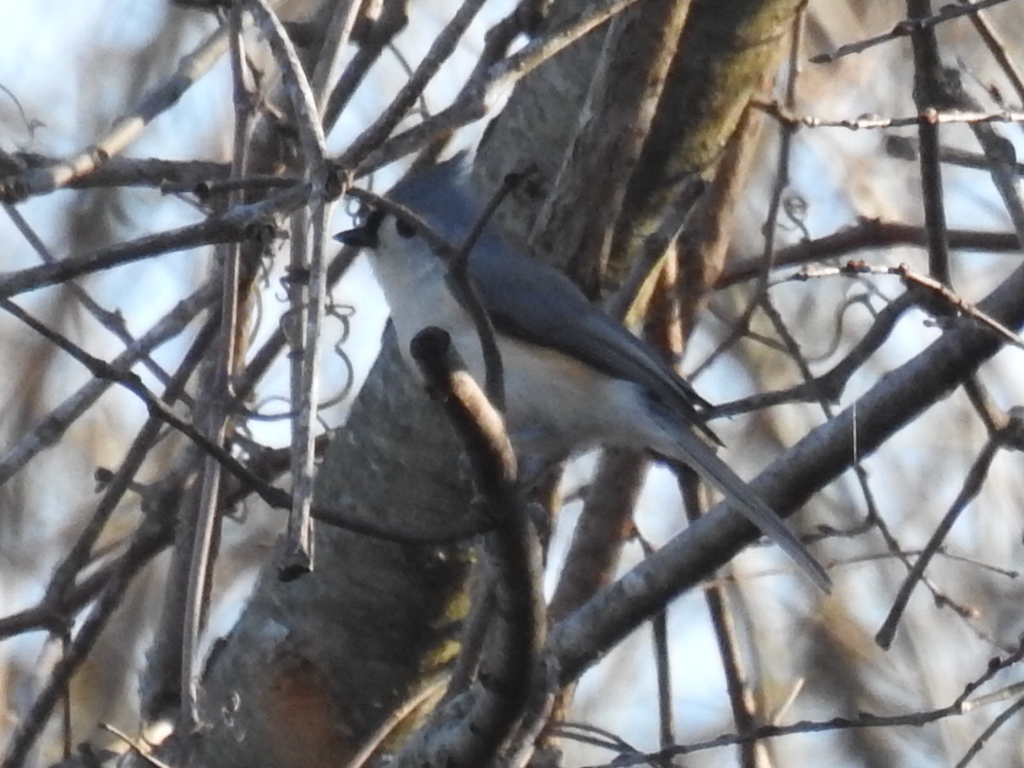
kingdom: Animalia
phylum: Chordata
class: Aves
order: Passeriformes
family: Paridae
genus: Baeolophus
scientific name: Baeolophus bicolor
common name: Tufted titmouse
